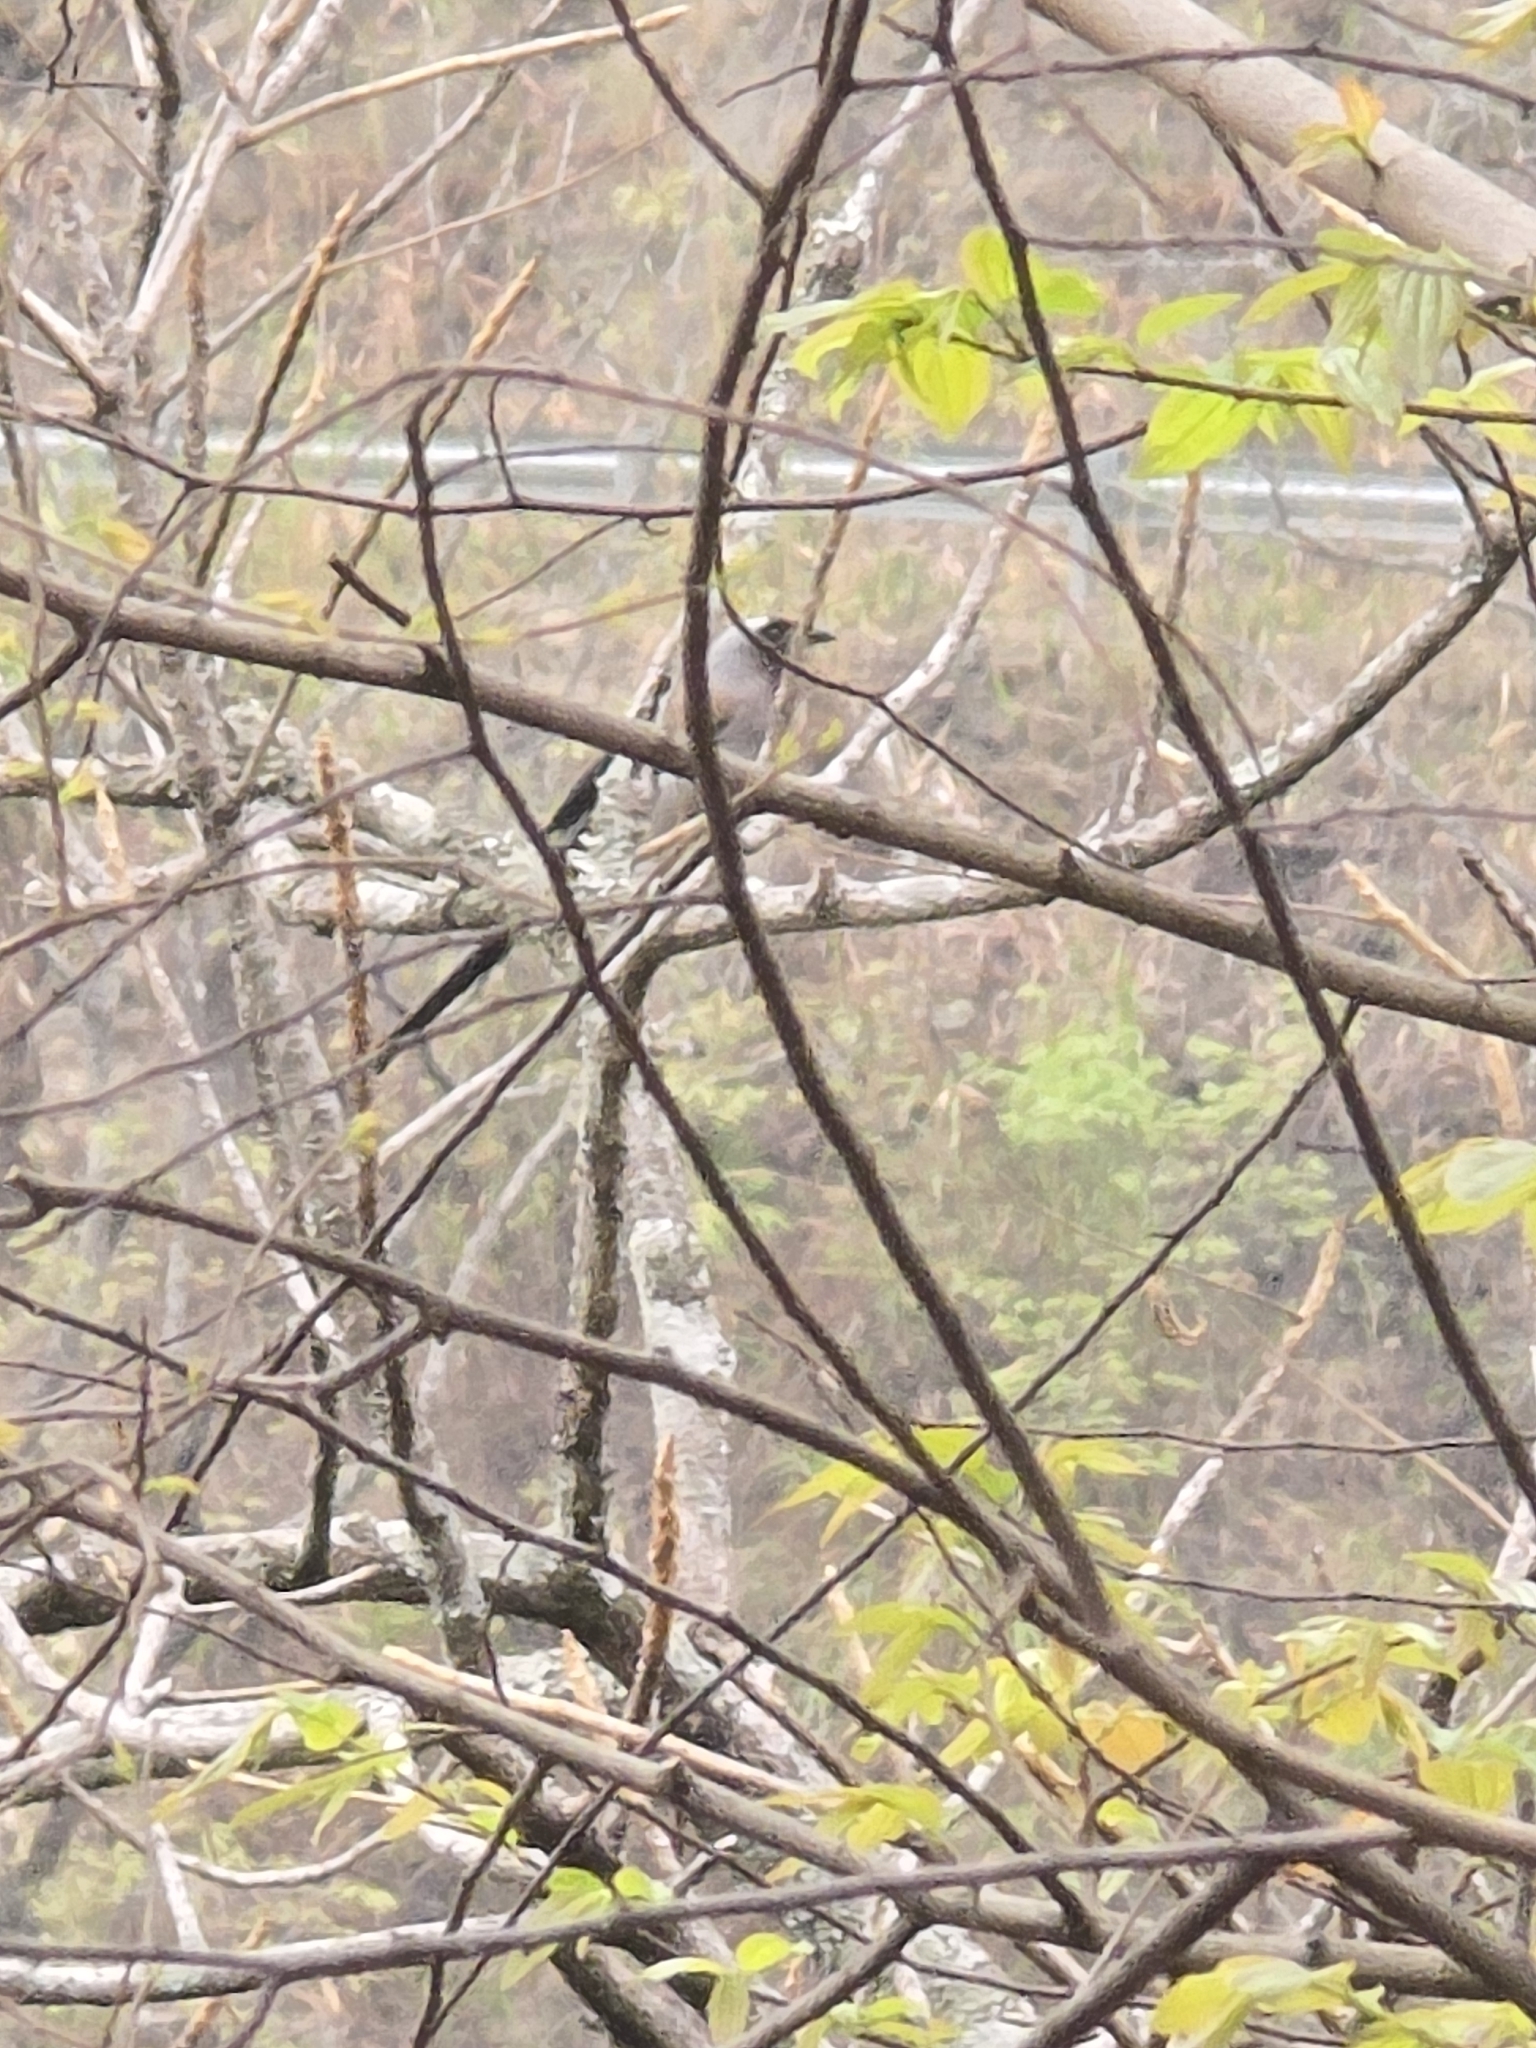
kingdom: Animalia
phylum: Chordata
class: Aves
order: Passeriformes
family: Corvidae
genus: Dendrocitta
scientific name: Dendrocitta formosae
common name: Grey treepie
